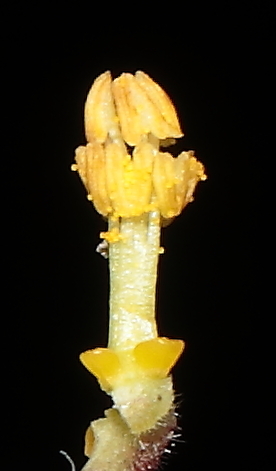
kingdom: Plantae
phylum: Tracheophyta
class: Magnoliopsida
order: Malpighiales
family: Euphorbiaceae
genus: Jatropha
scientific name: Jatropha clavuligera
